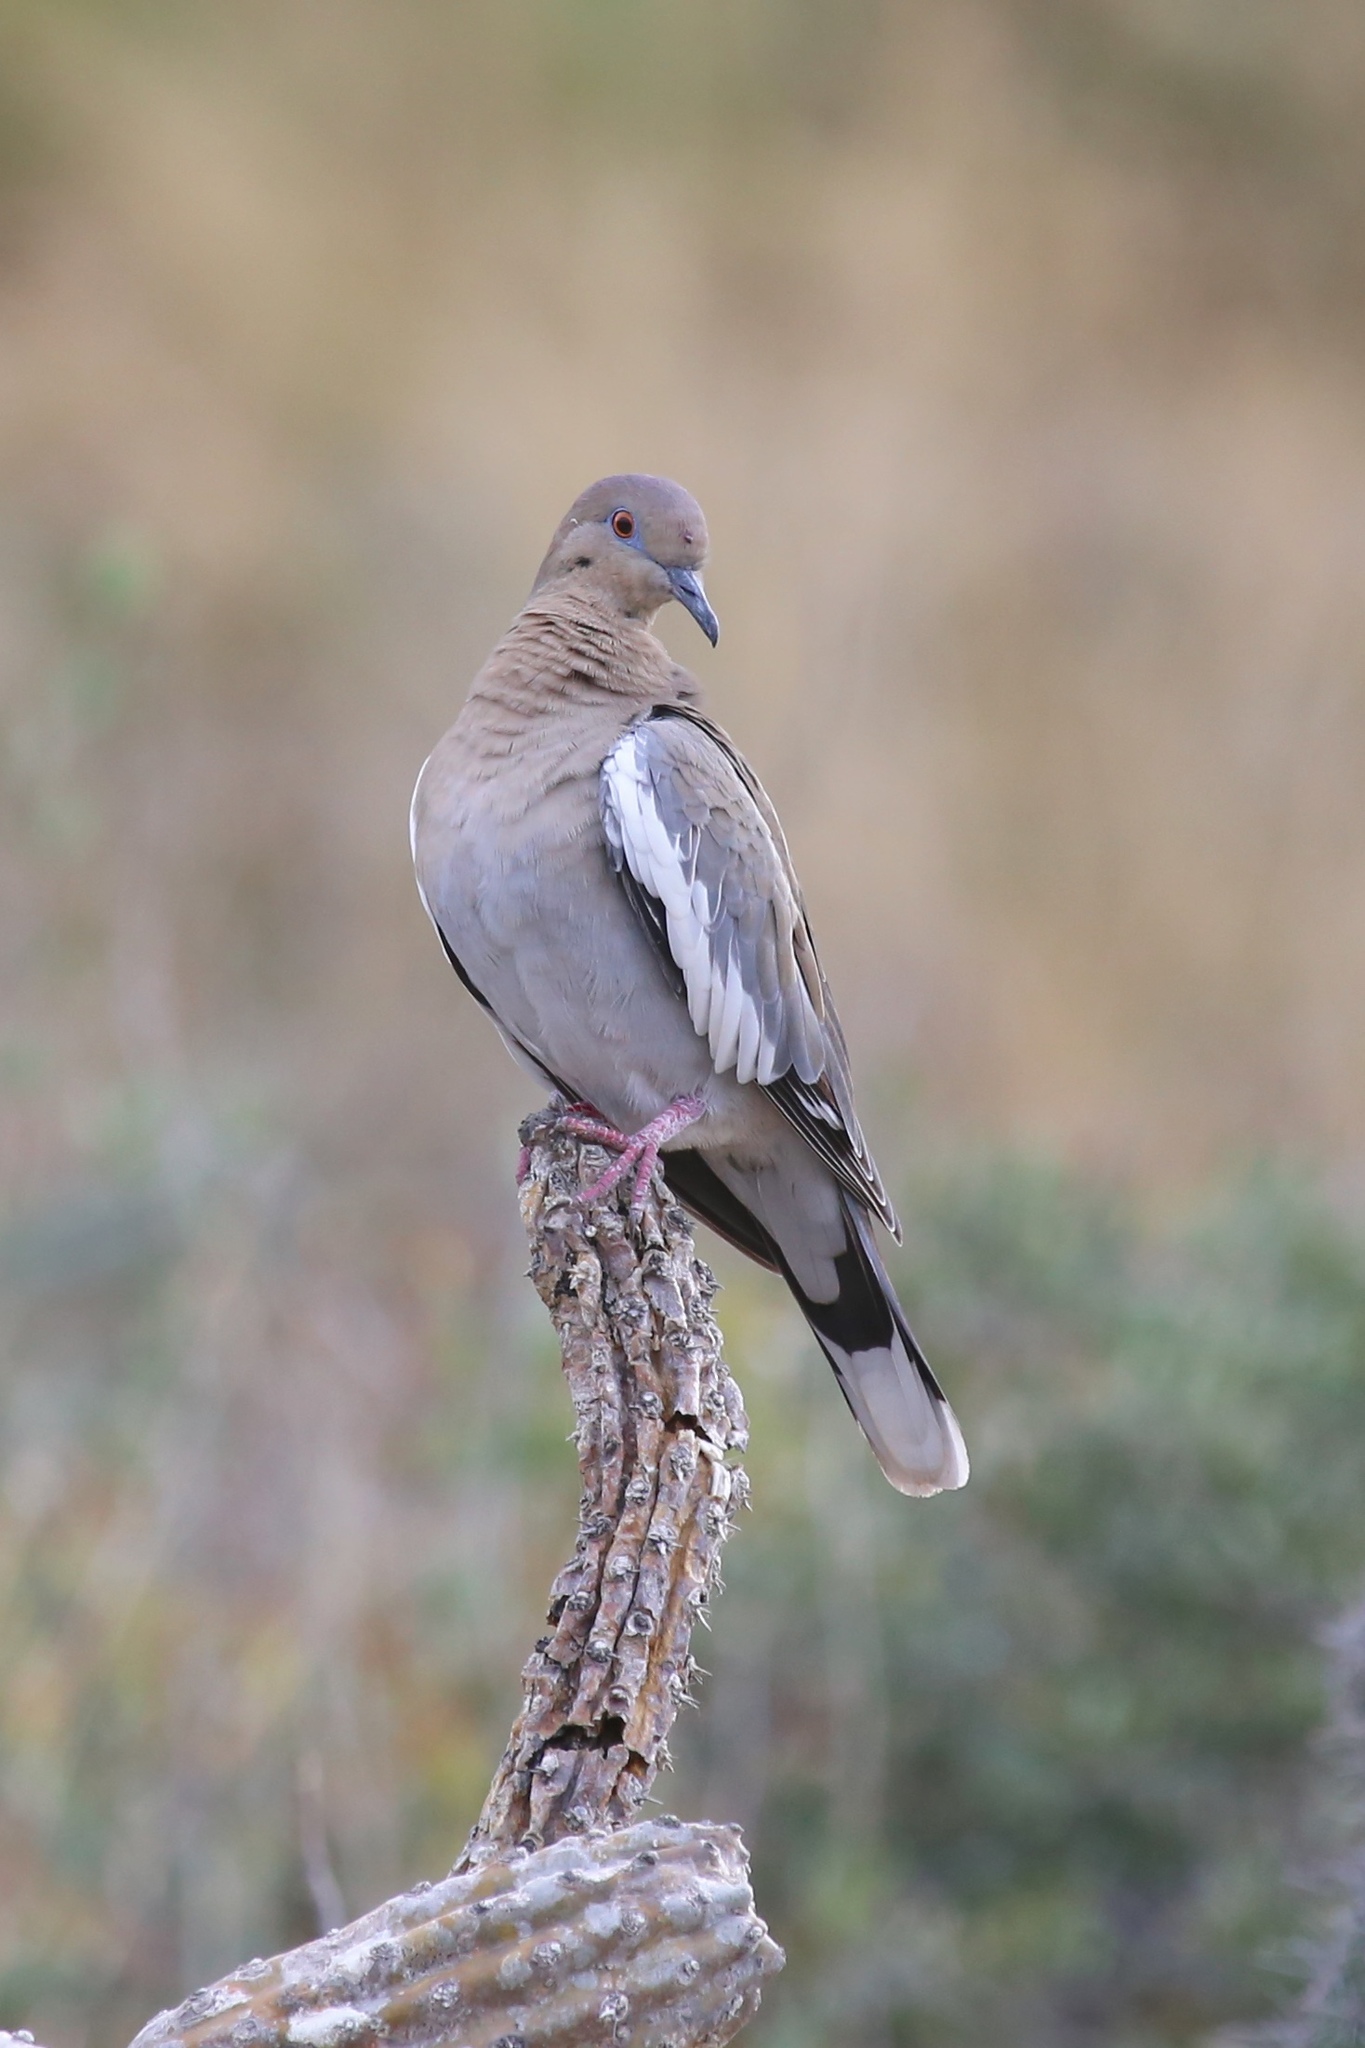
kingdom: Animalia
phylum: Chordata
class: Aves
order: Columbiformes
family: Columbidae
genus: Zenaida
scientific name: Zenaida asiatica
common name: White-winged dove
